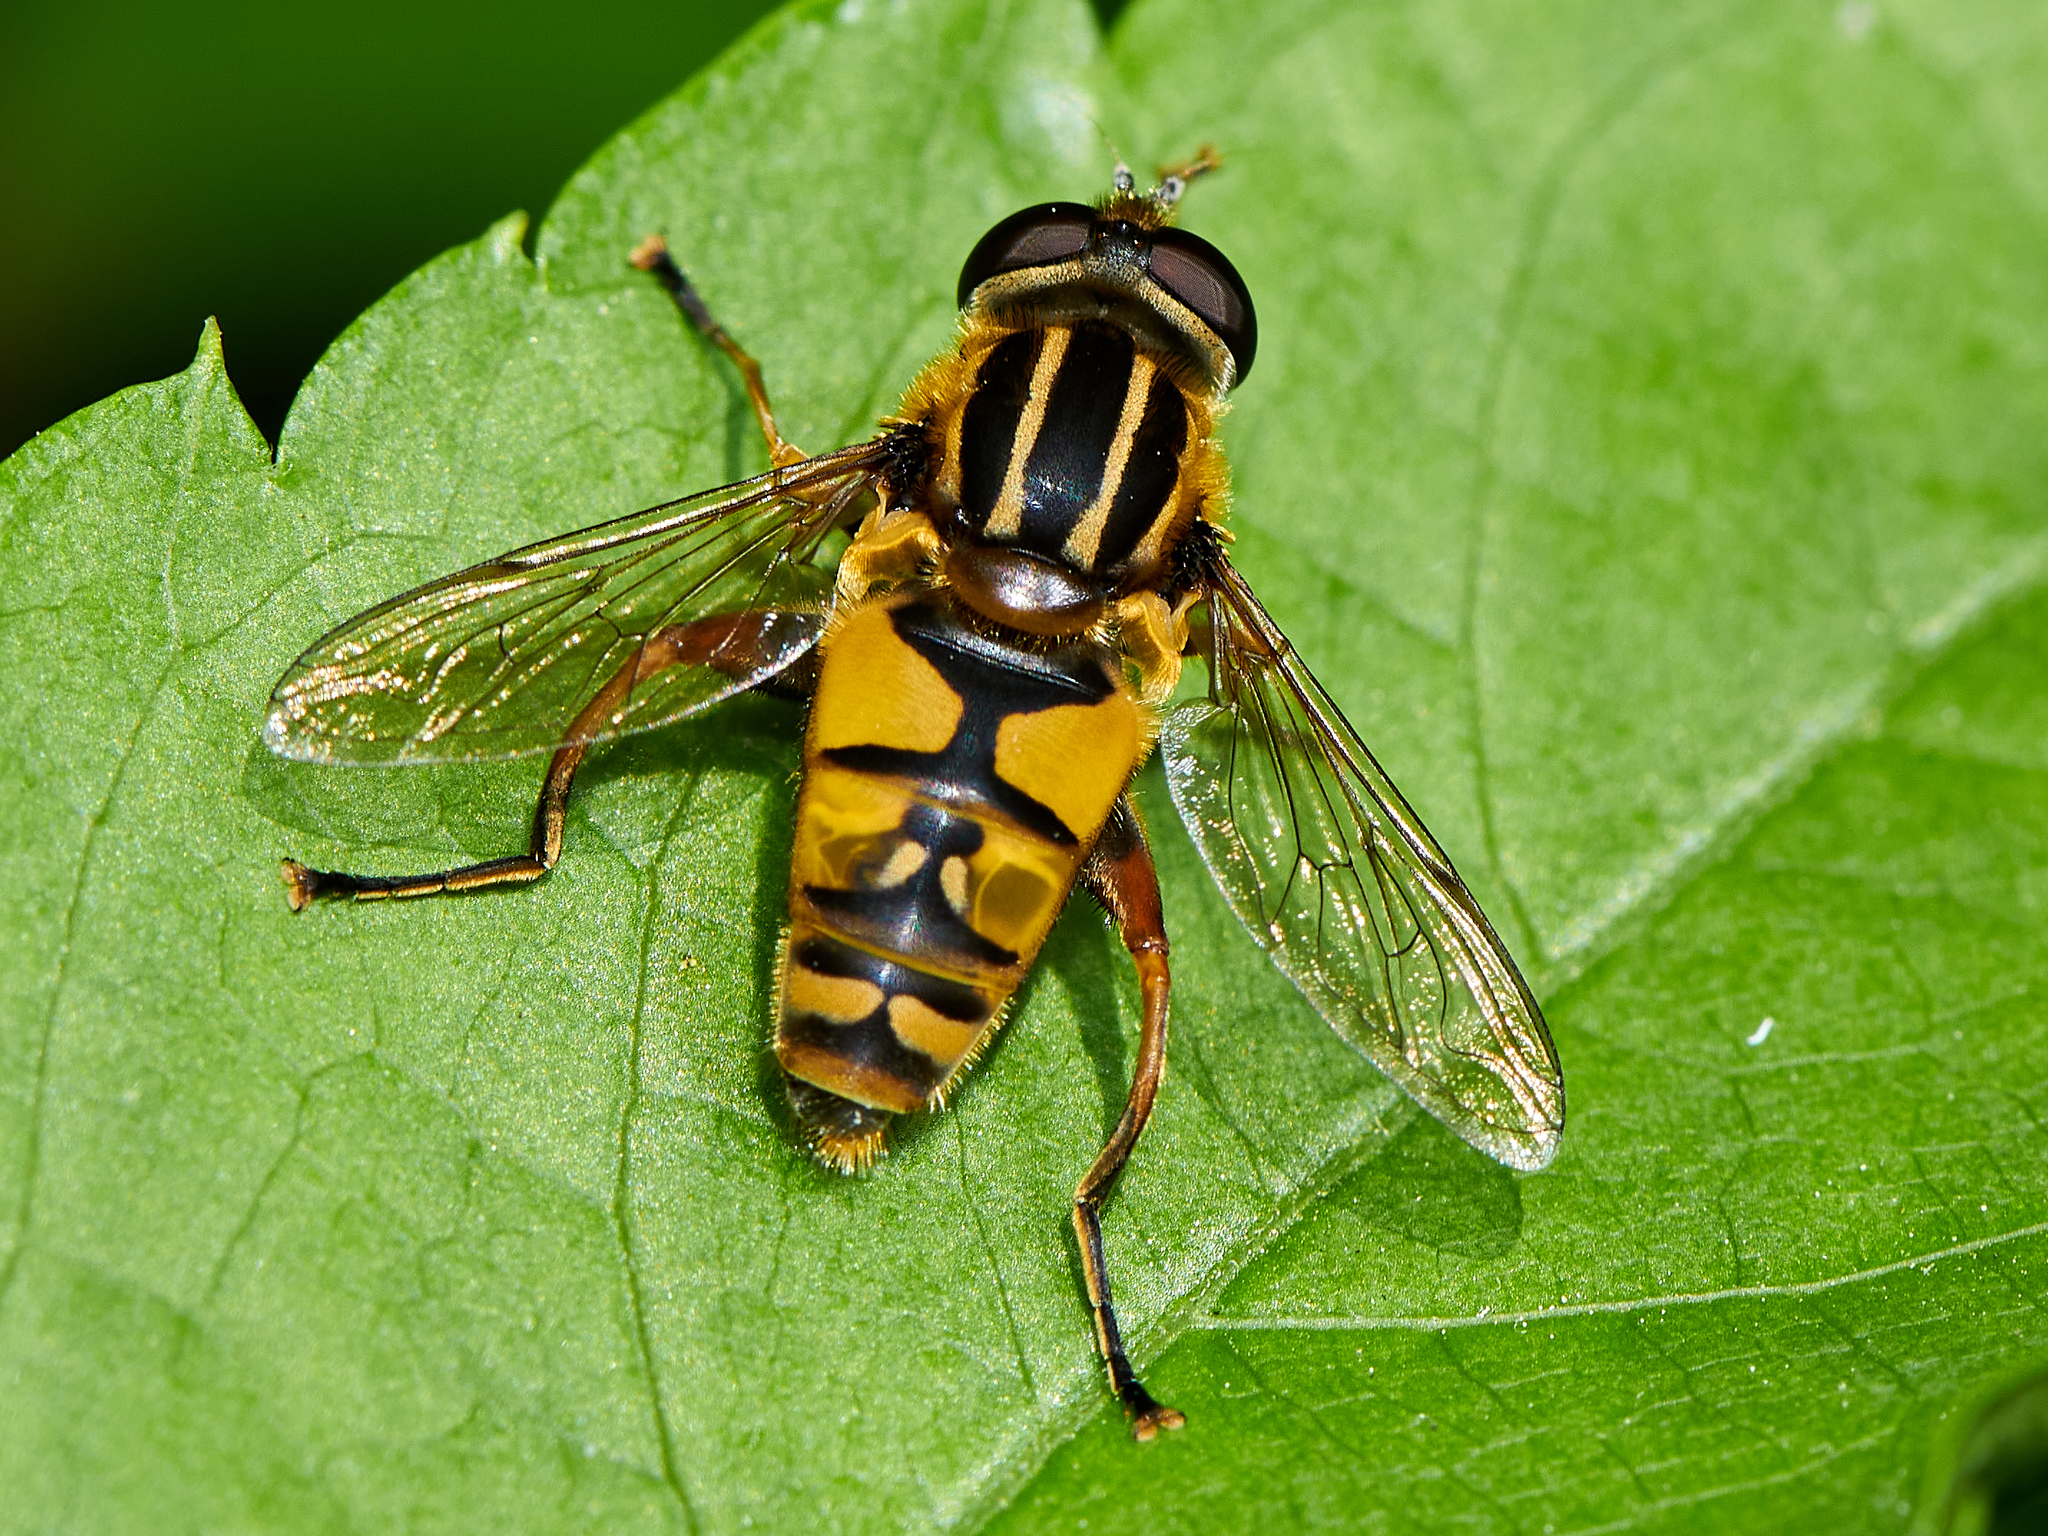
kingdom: Animalia
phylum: Arthropoda
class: Insecta
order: Diptera
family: Syrphidae
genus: Helophilus
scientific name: Helophilus pendulus
